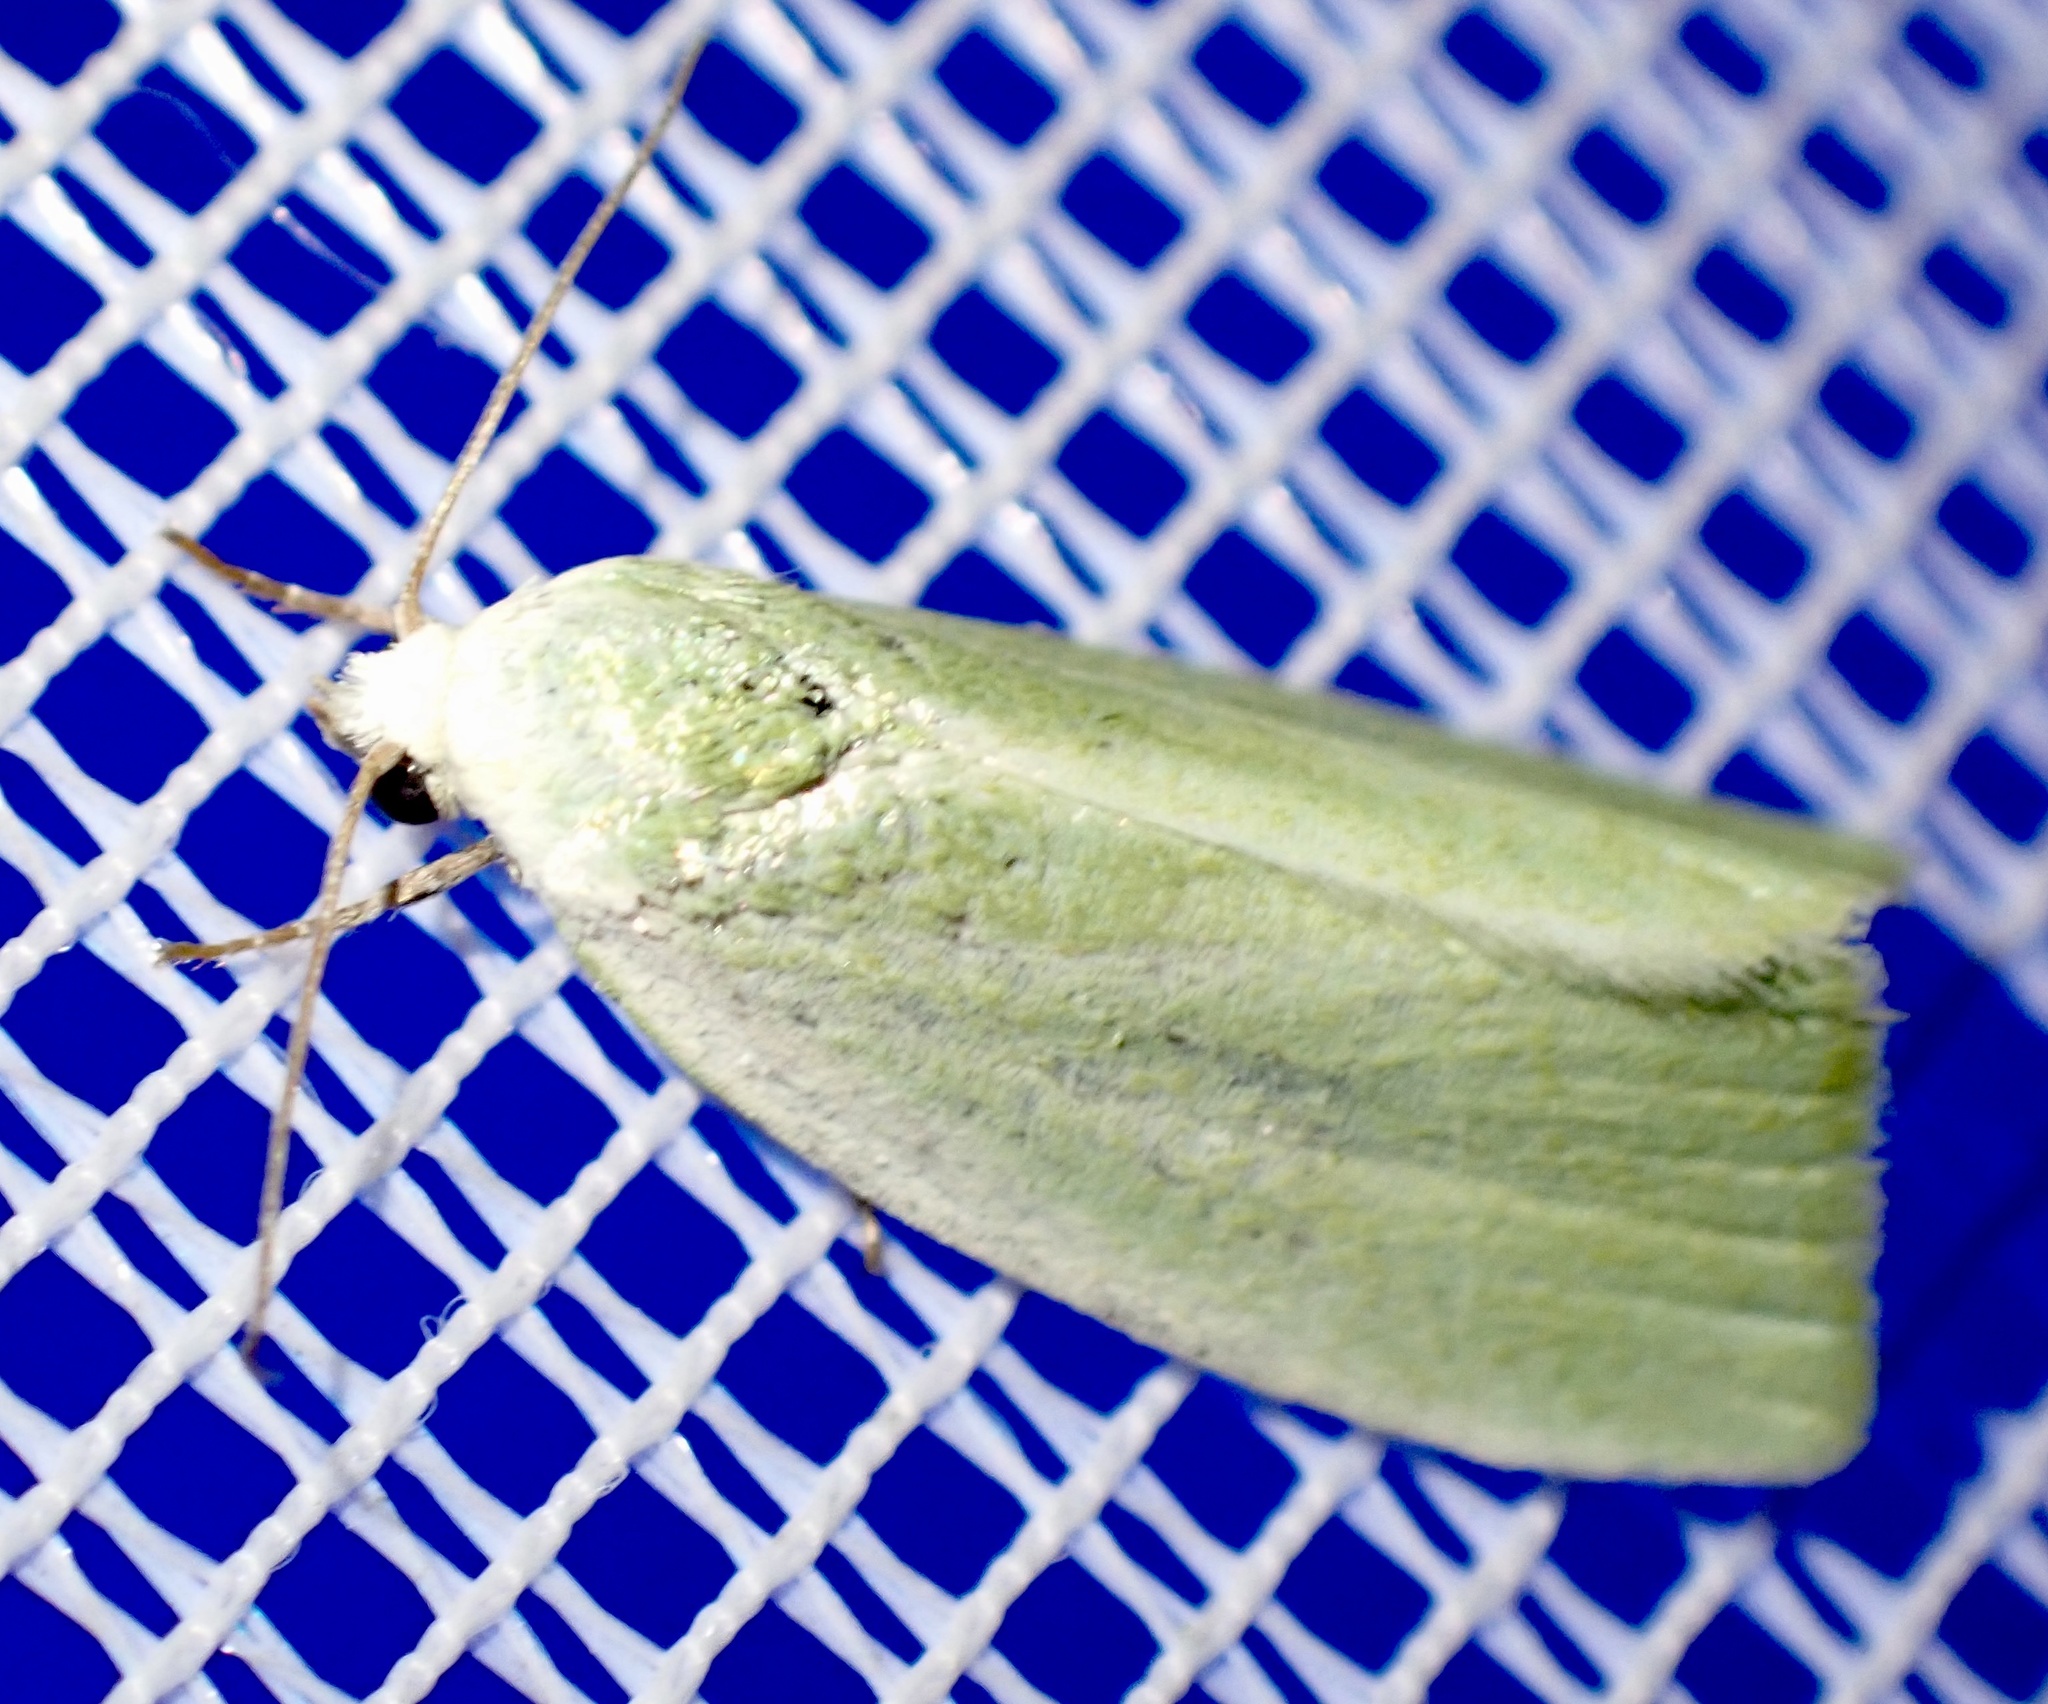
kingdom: Animalia
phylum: Arthropoda
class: Insecta
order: Lepidoptera
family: Nolidae
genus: Earias
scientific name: Earias clorana
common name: Cream-bordered green pea
